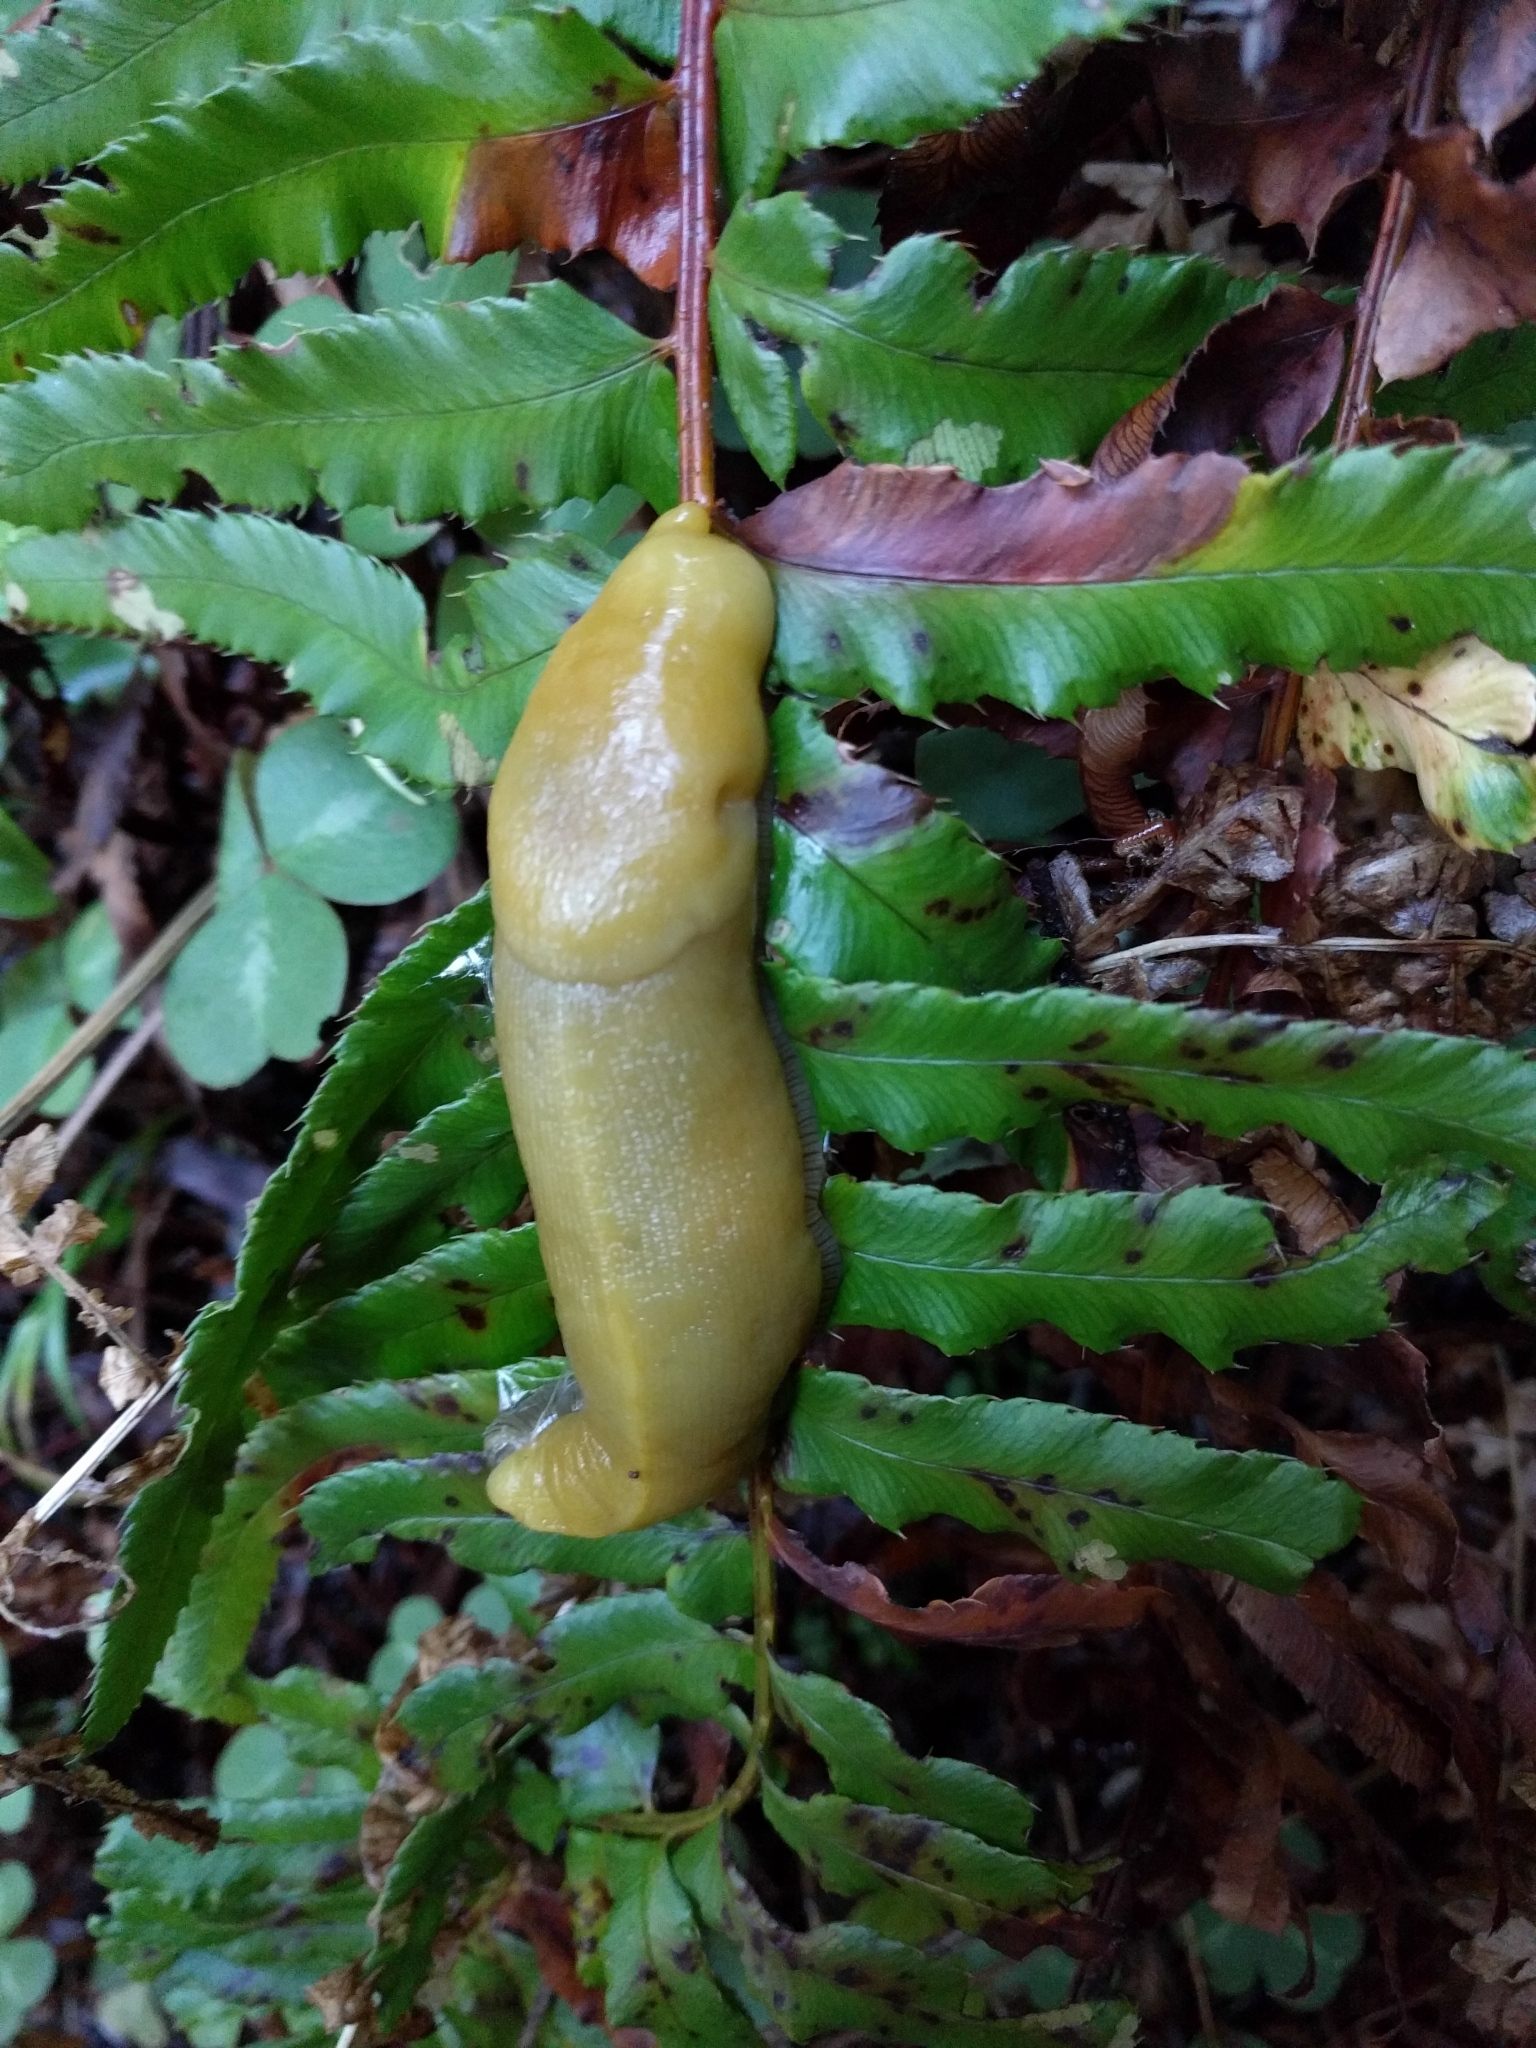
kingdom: Animalia
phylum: Mollusca
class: Gastropoda
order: Stylommatophora
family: Ariolimacidae
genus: Ariolimax
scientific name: Ariolimax buttoni
